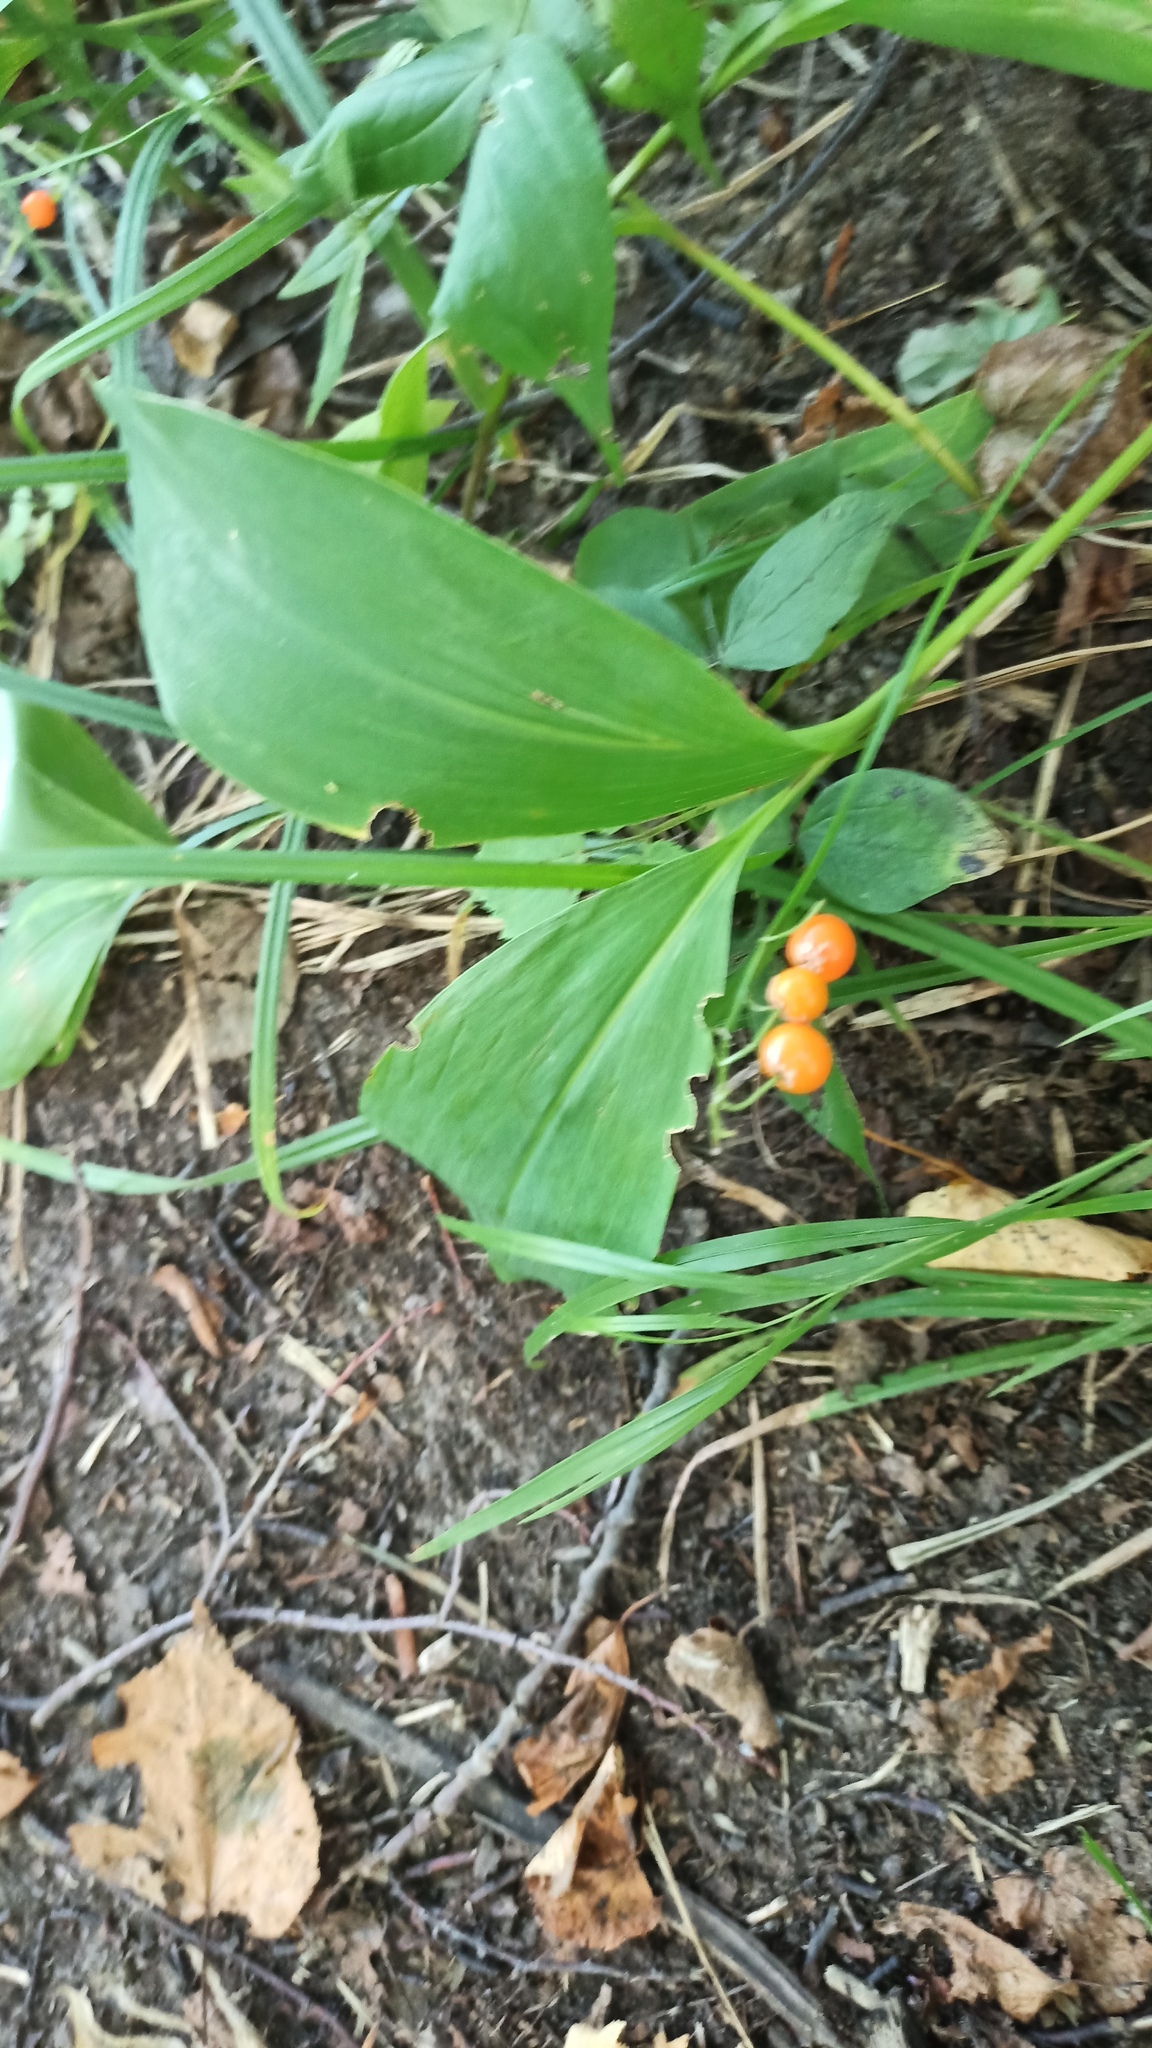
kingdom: Plantae
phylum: Tracheophyta
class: Liliopsida
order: Asparagales
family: Asparagaceae
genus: Convallaria
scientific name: Convallaria majalis
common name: Lily-of-the-valley
